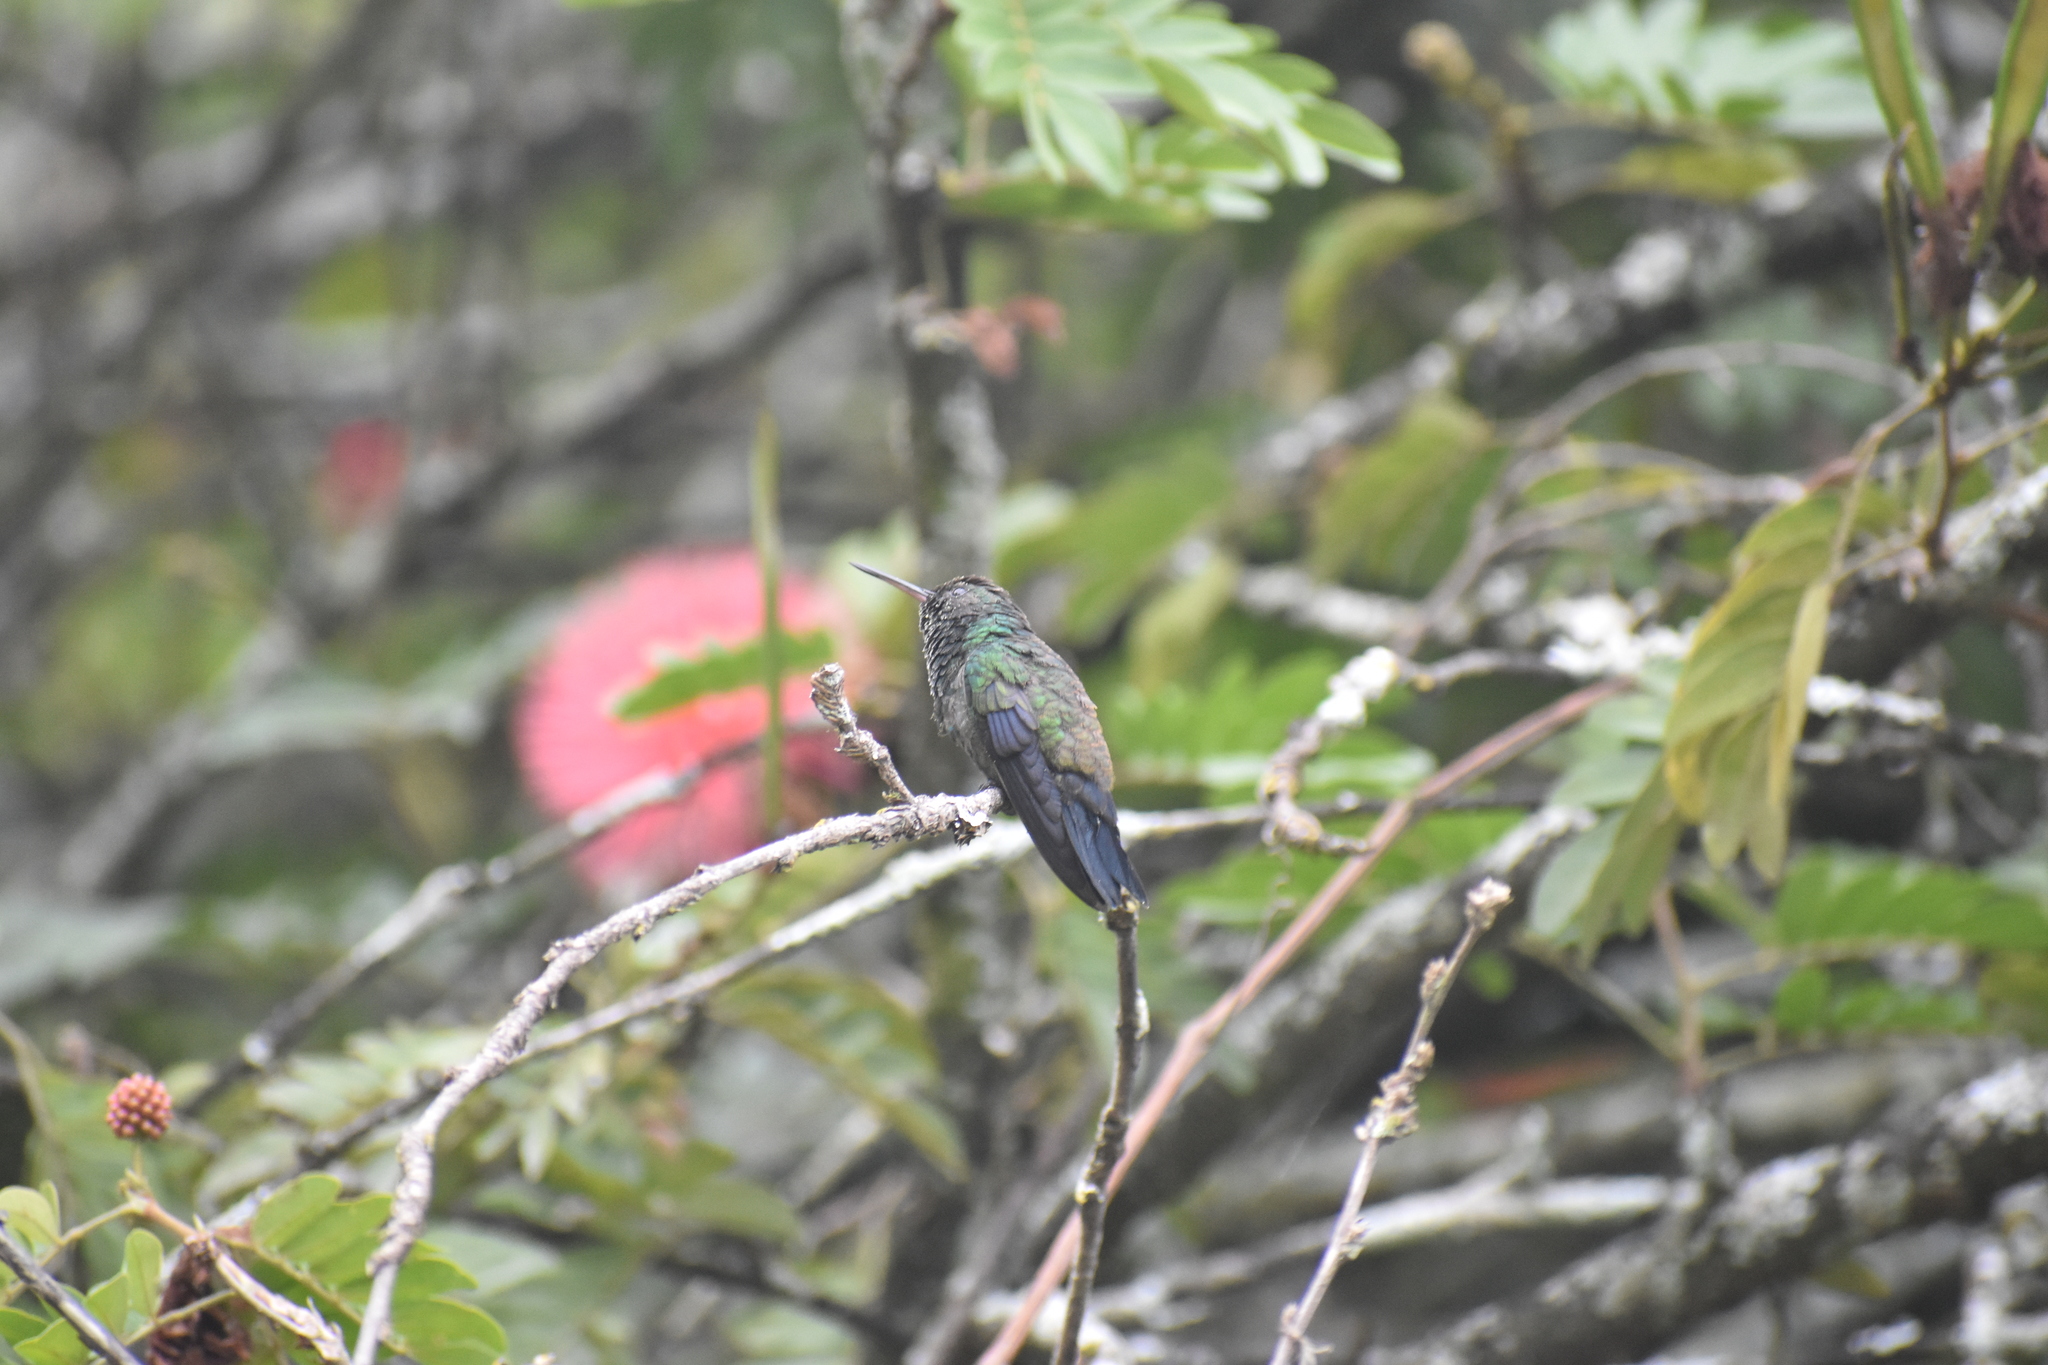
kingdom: Animalia
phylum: Chordata
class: Aves
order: Apodiformes
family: Trochilidae
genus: Saucerottia
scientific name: Saucerottia saucerottei
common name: Steely-vented hummingbird
